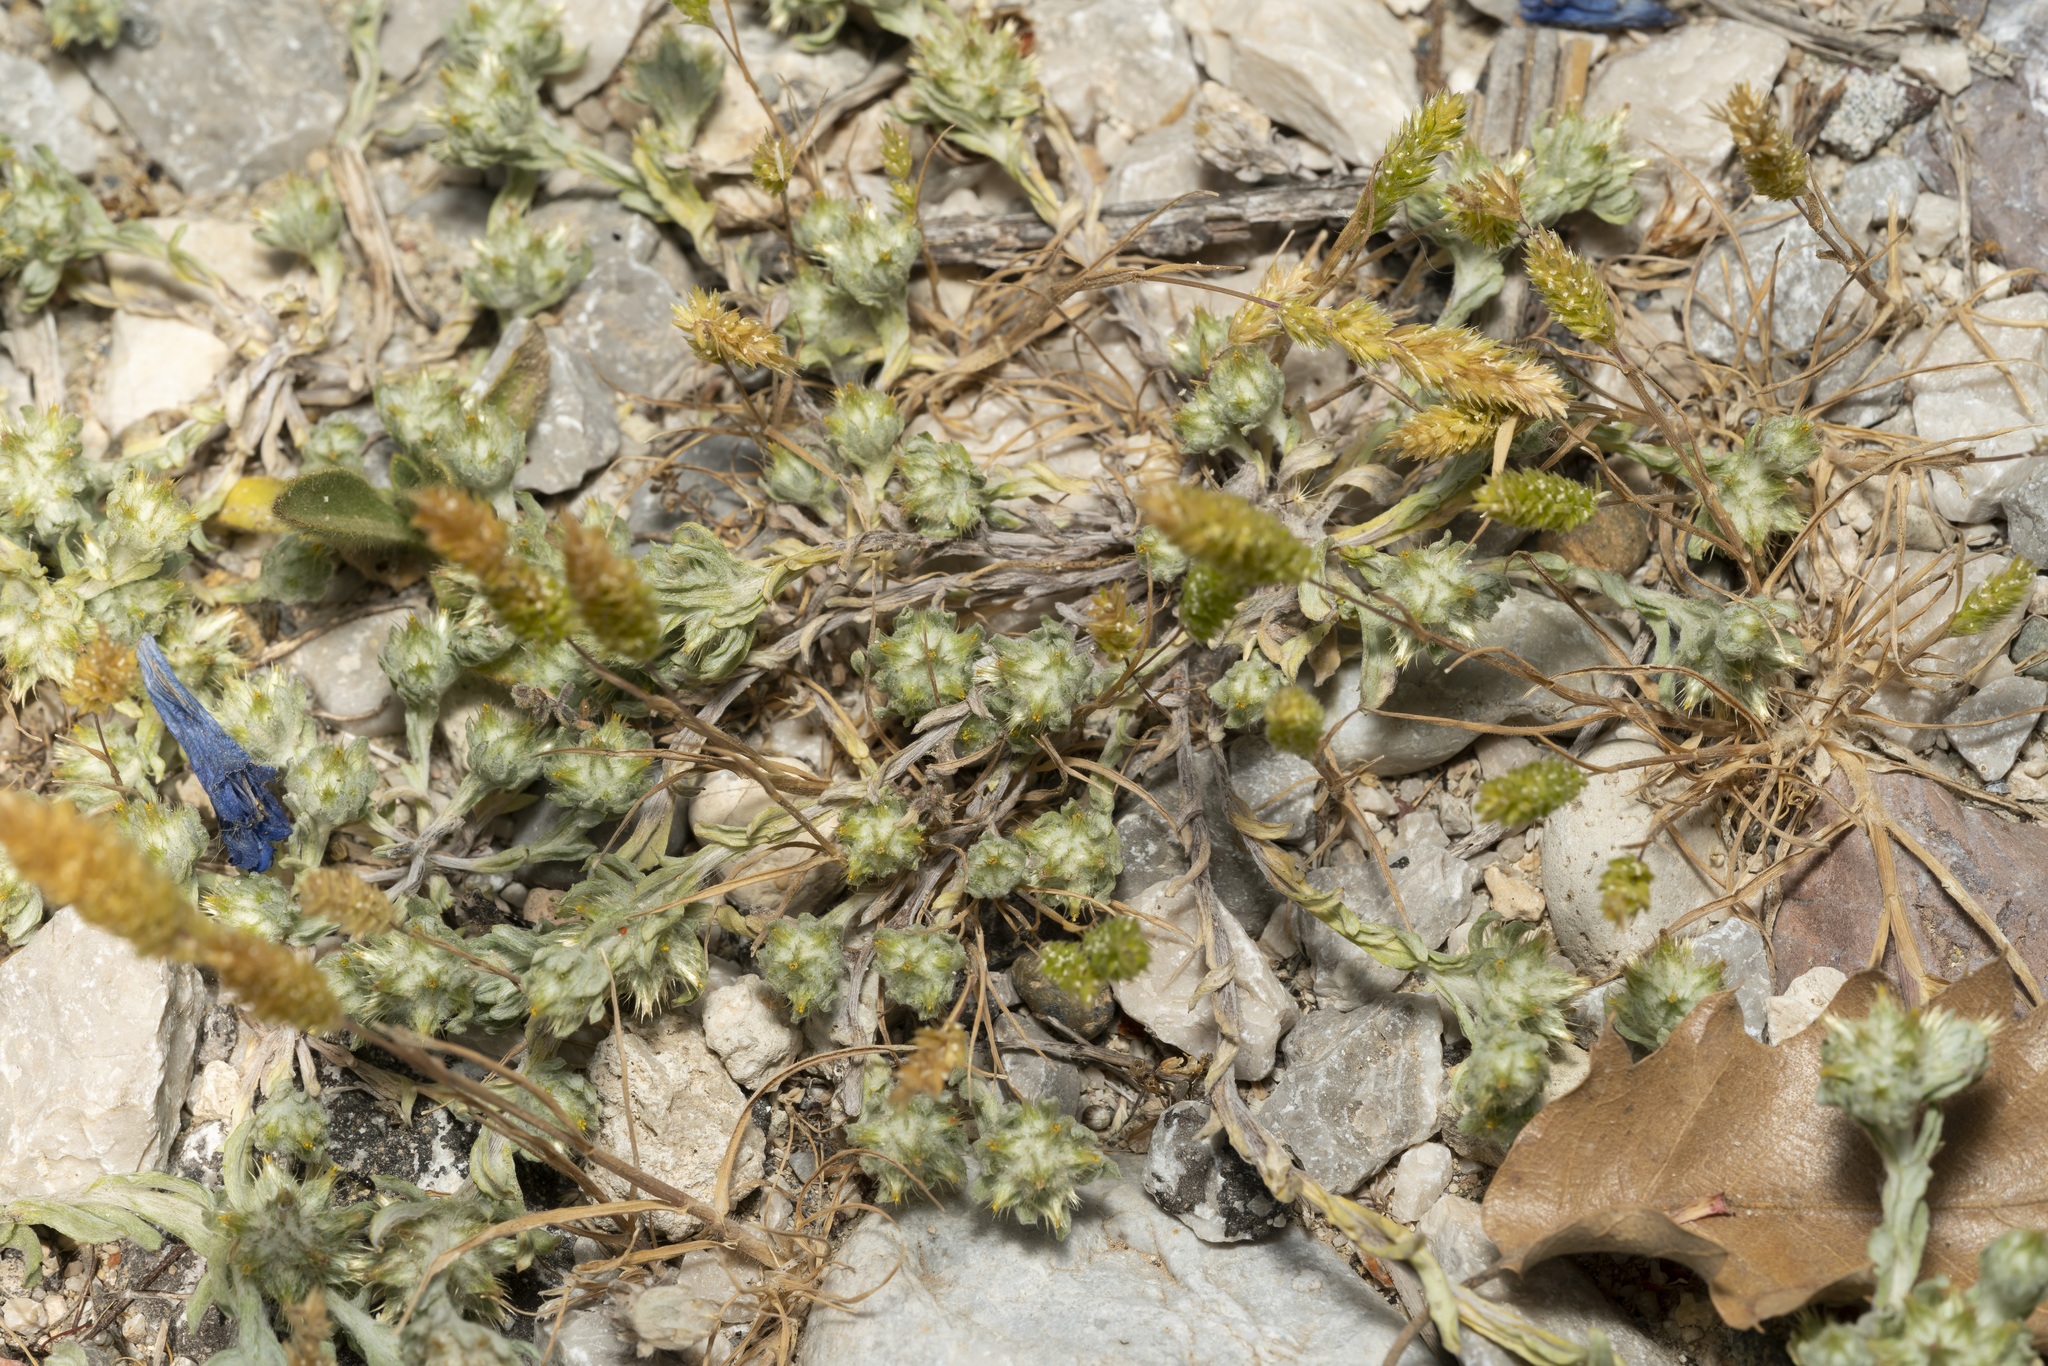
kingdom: Plantae
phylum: Tracheophyta
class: Magnoliopsida
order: Asterales
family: Asteraceae
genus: Filago
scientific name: Filago pyramidata
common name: Broad-leaved cudweed
